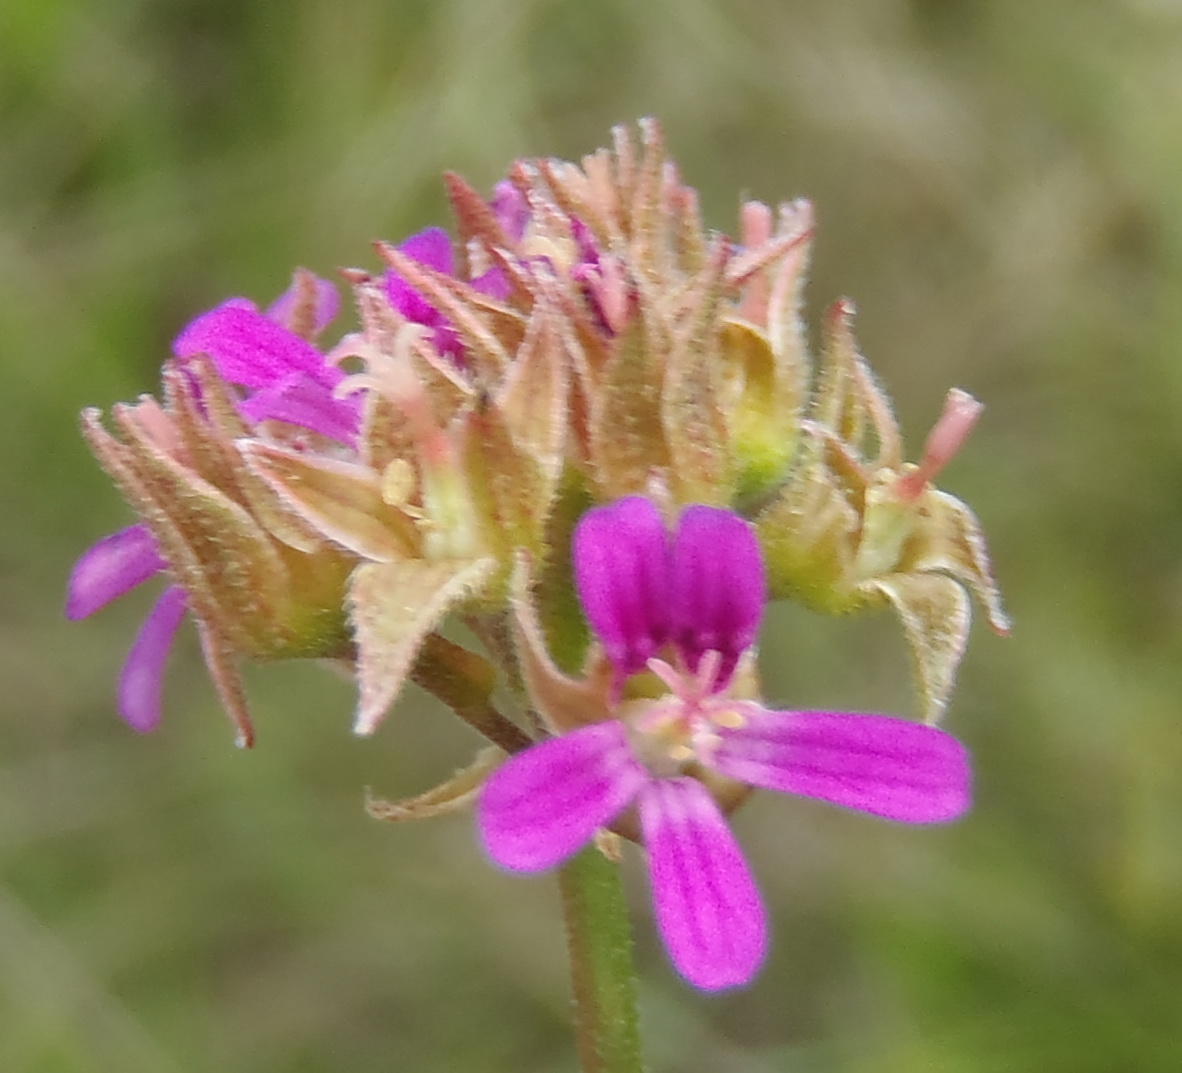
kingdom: Plantae
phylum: Tracheophyta
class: Magnoliopsida
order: Geraniales
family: Geraniaceae
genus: Pelargonium
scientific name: Pelargonium grossularioides
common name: Gooseberry geranium
